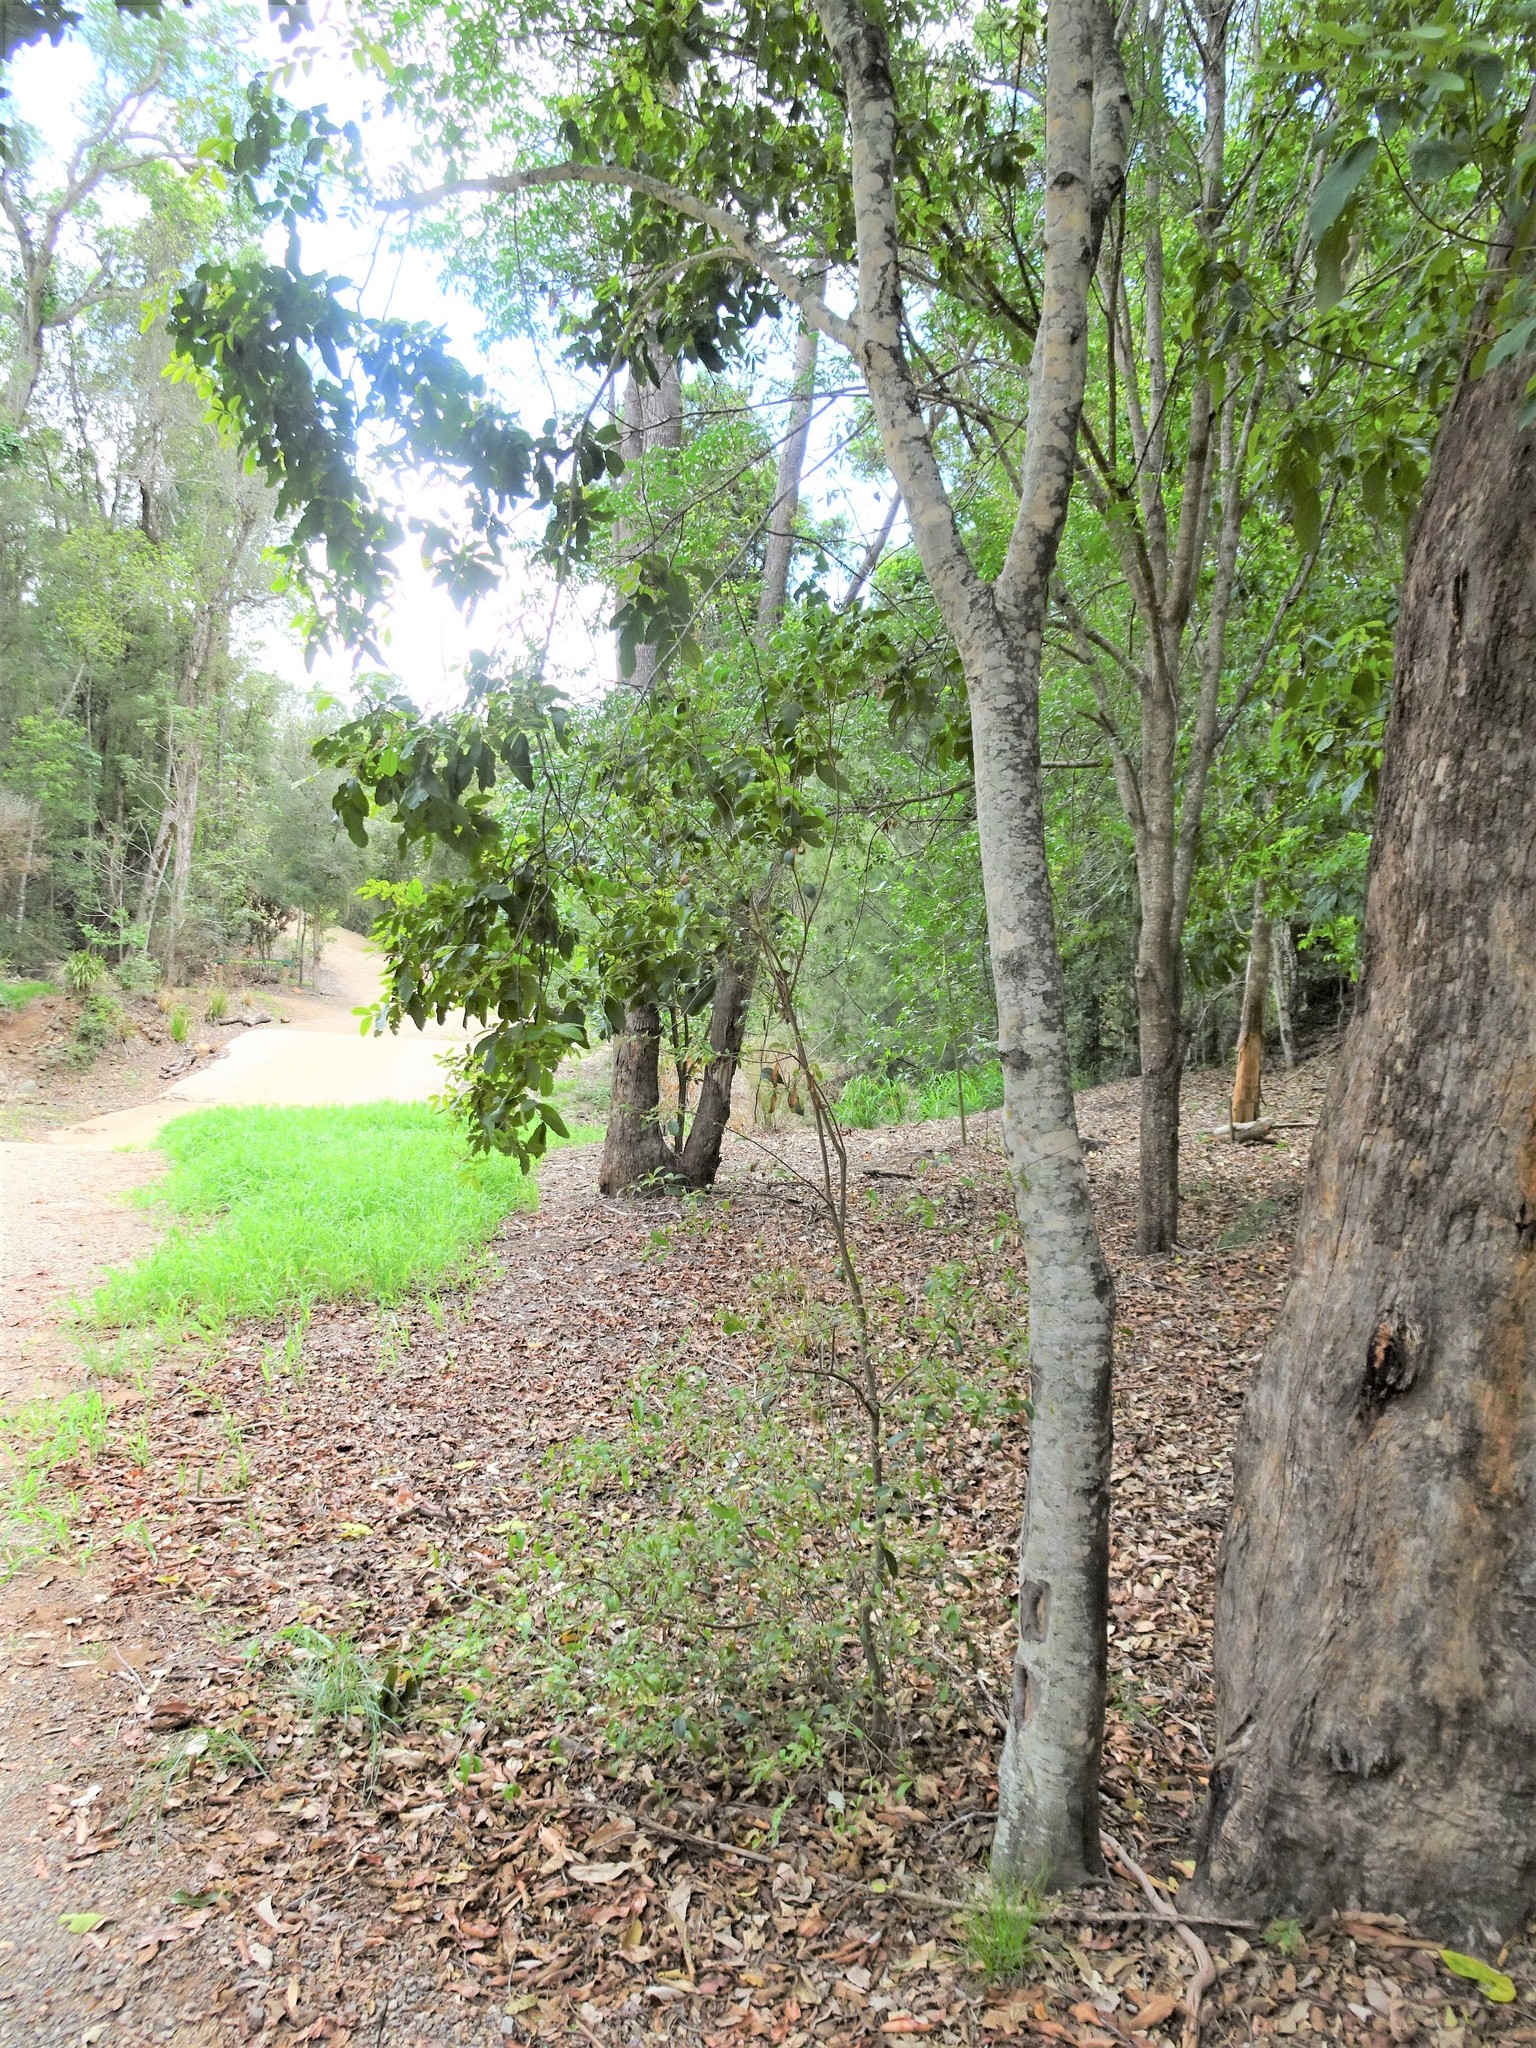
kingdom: Plantae
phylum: Tracheophyta
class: Magnoliopsida
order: Sapindales
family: Sapindaceae
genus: Alectryon
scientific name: Alectryon tomentosus
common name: Bed-jacket
